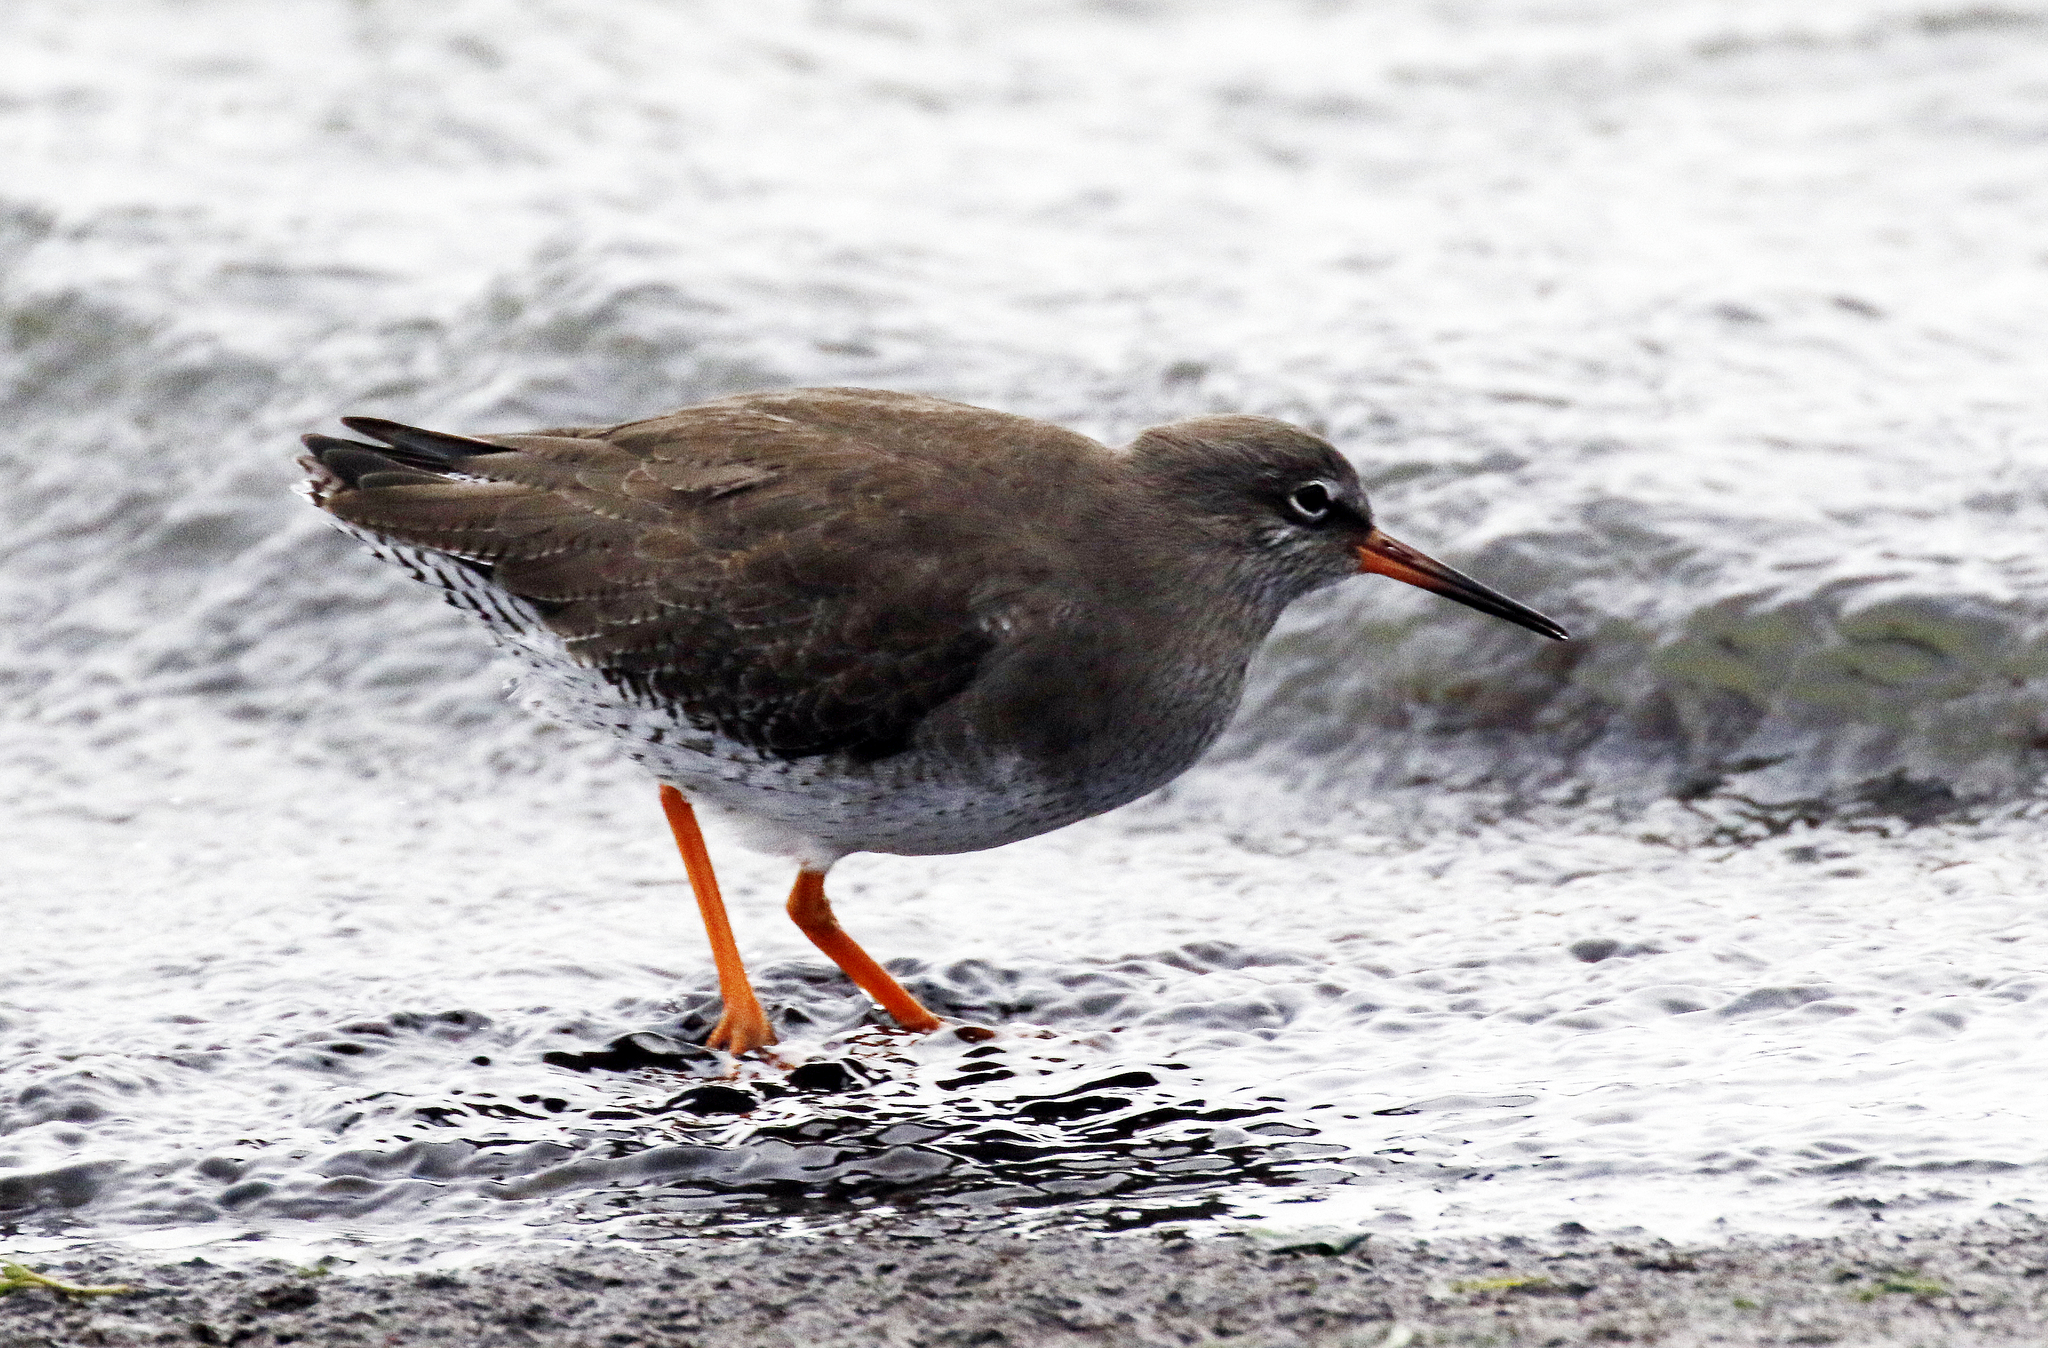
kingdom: Animalia
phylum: Chordata
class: Aves
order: Charadriiformes
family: Scolopacidae
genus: Tringa
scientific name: Tringa totanus
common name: Common redshank
